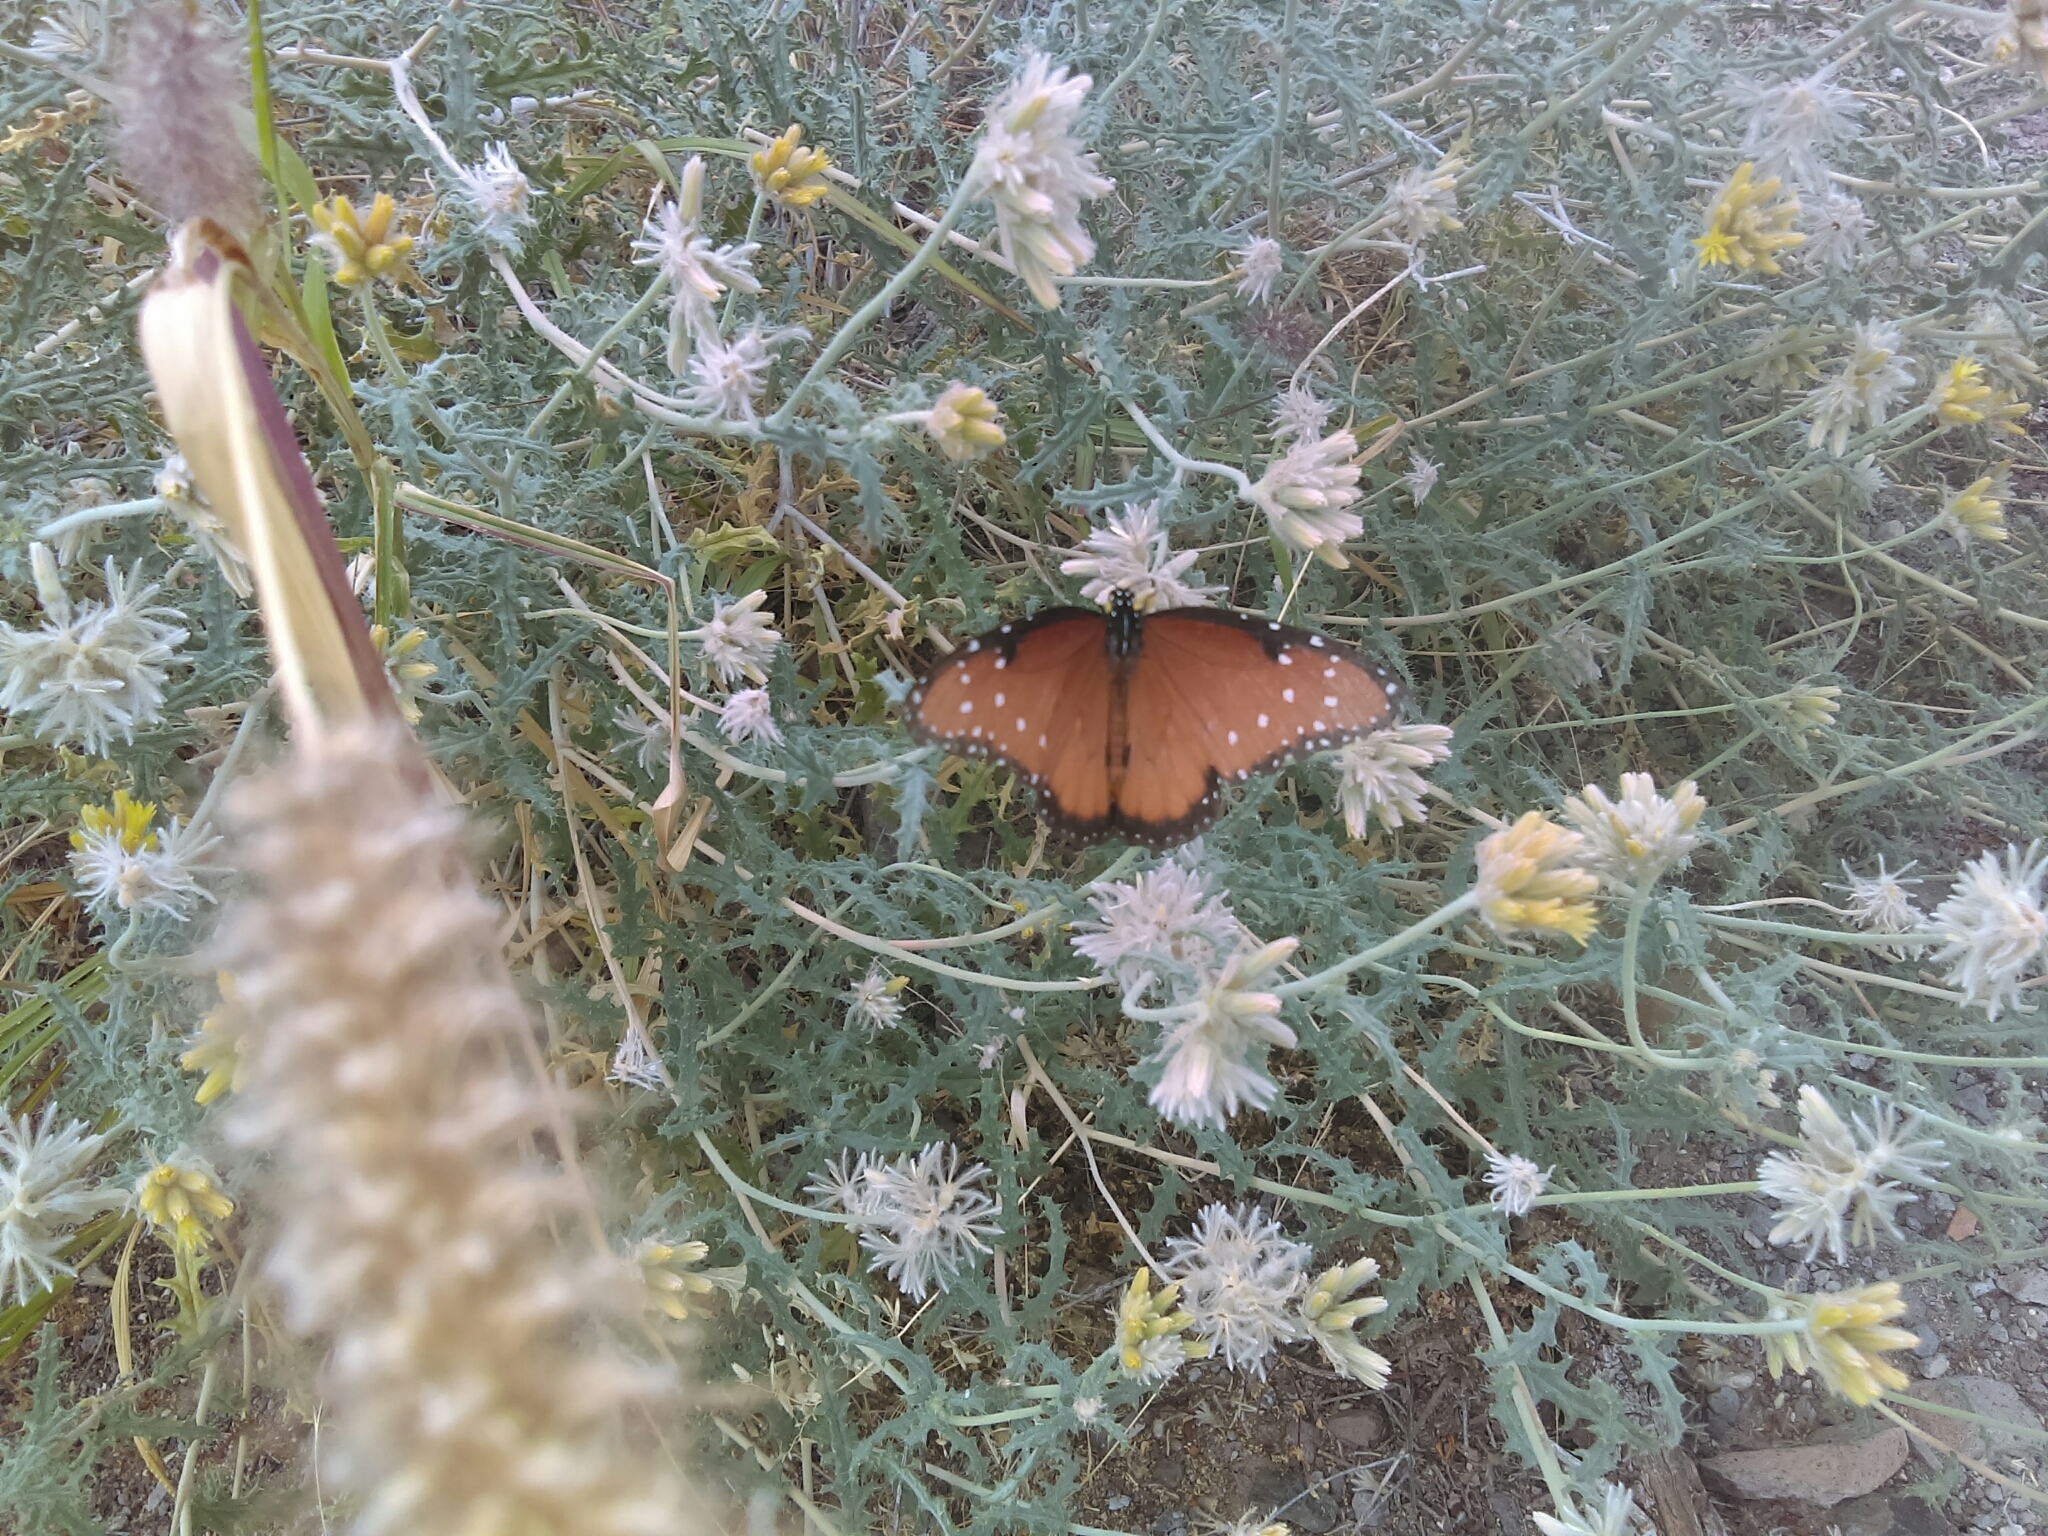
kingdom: Animalia
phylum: Arthropoda
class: Insecta
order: Lepidoptera
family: Nymphalidae
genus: Danaus
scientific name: Danaus gilippus
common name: Queen
